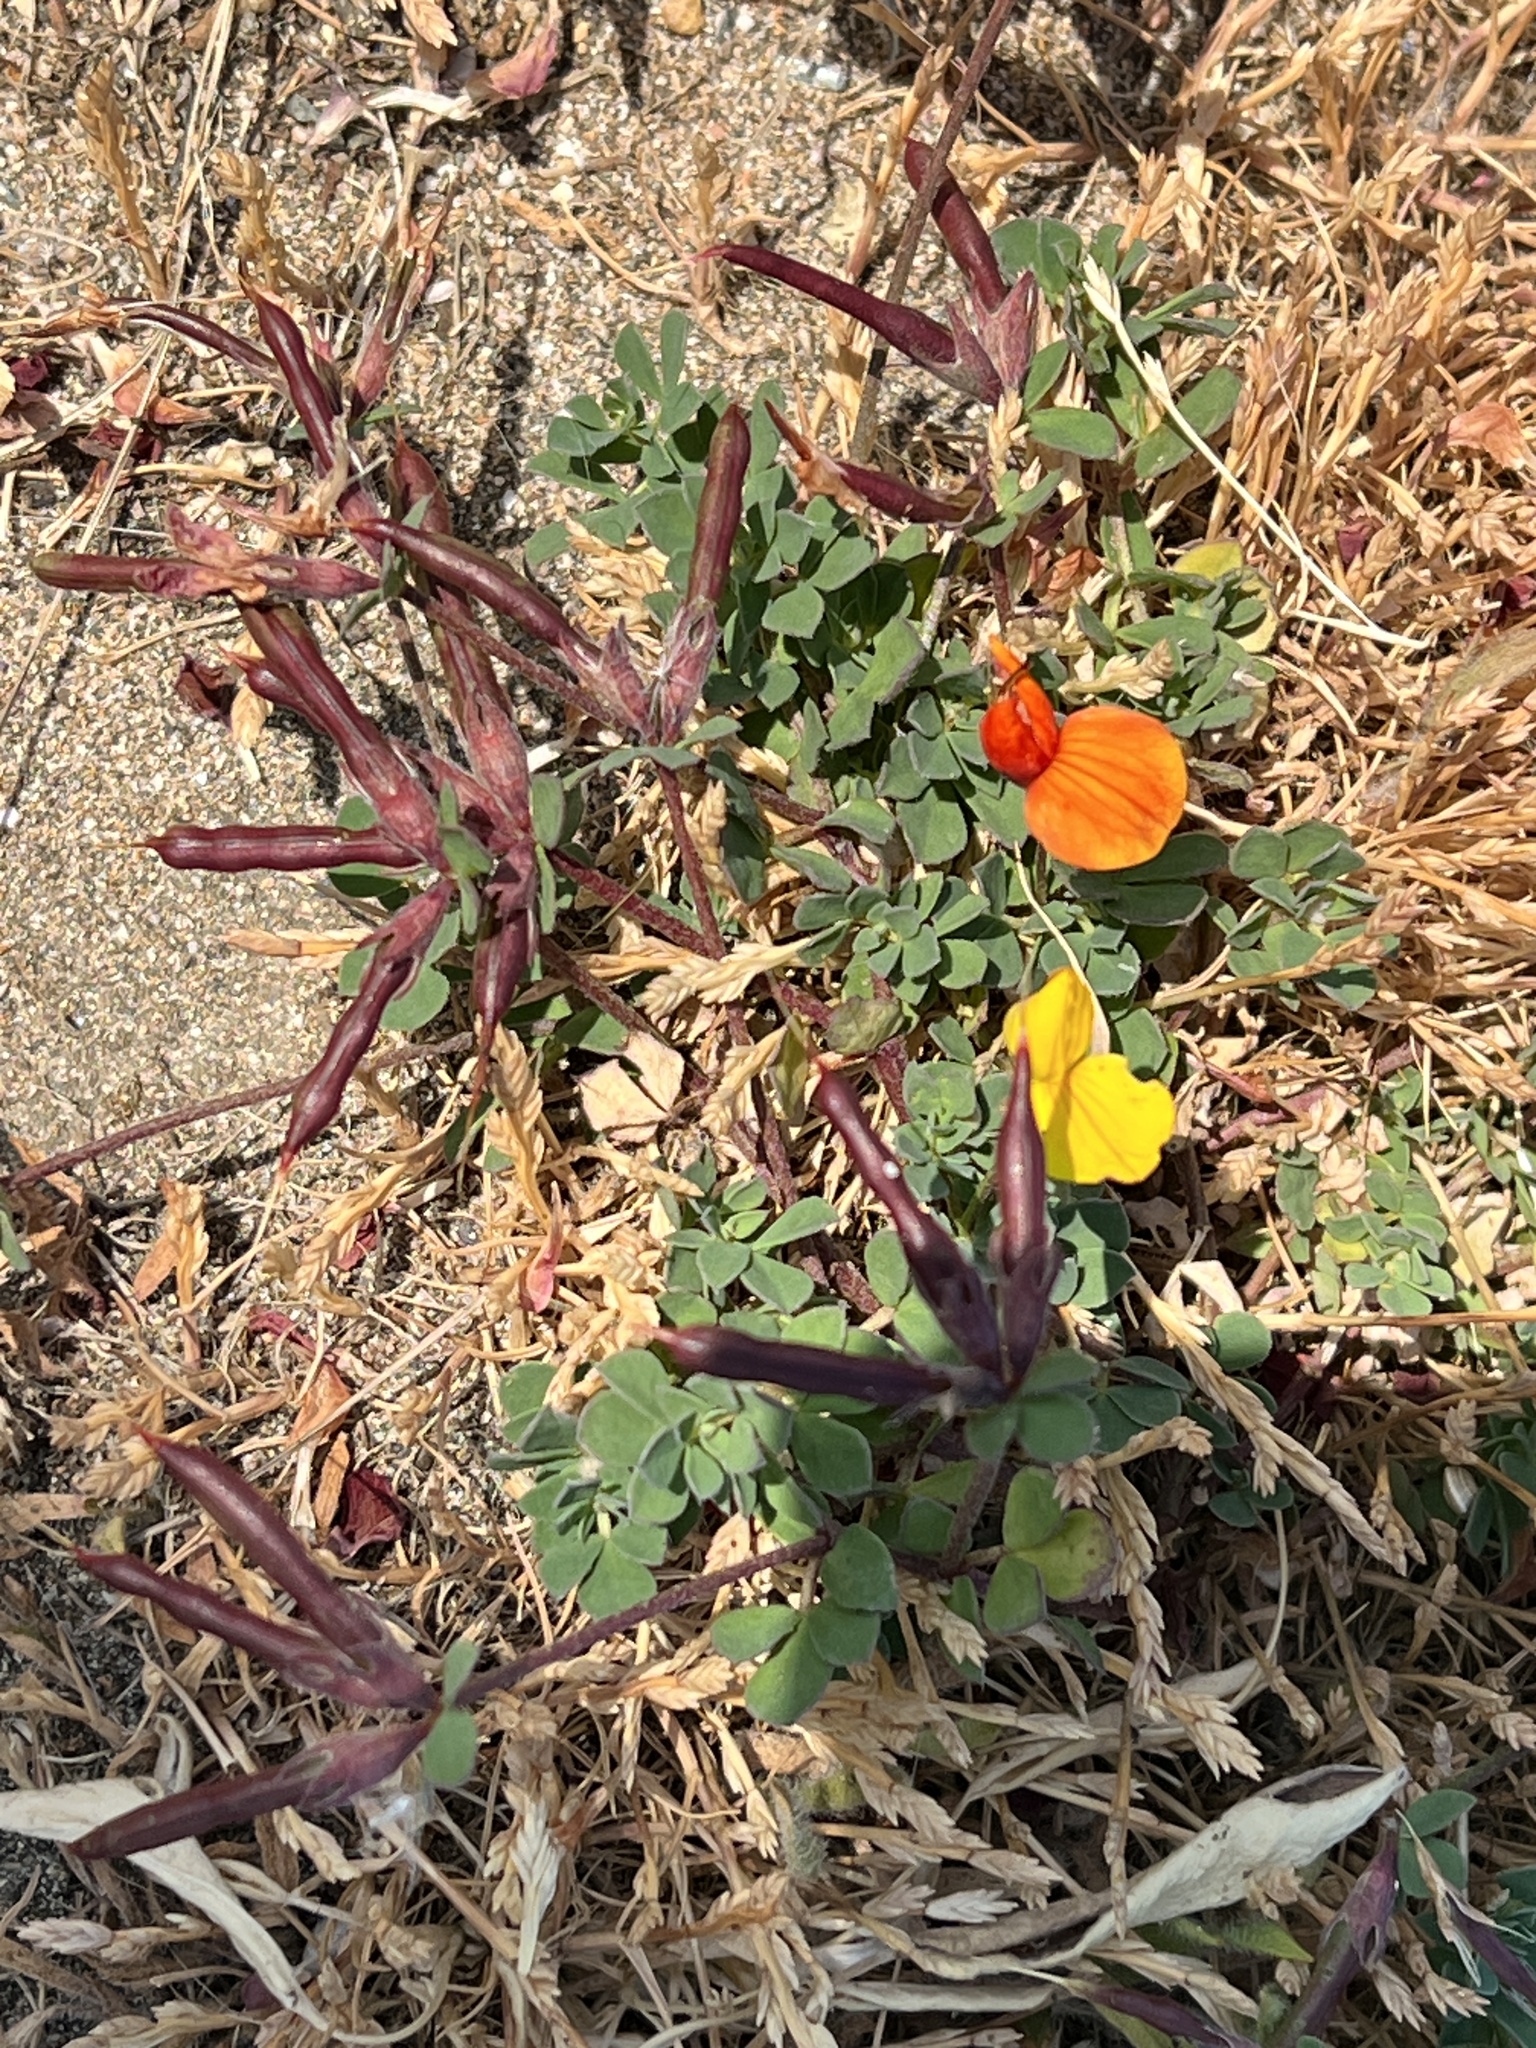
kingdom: Plantae
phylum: Tracheophyta
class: Magnoliopsida
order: Fabales
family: Fabaceae
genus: Lotus
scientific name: Lotus corniculatus
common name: Common bird's-foot-trefoil
